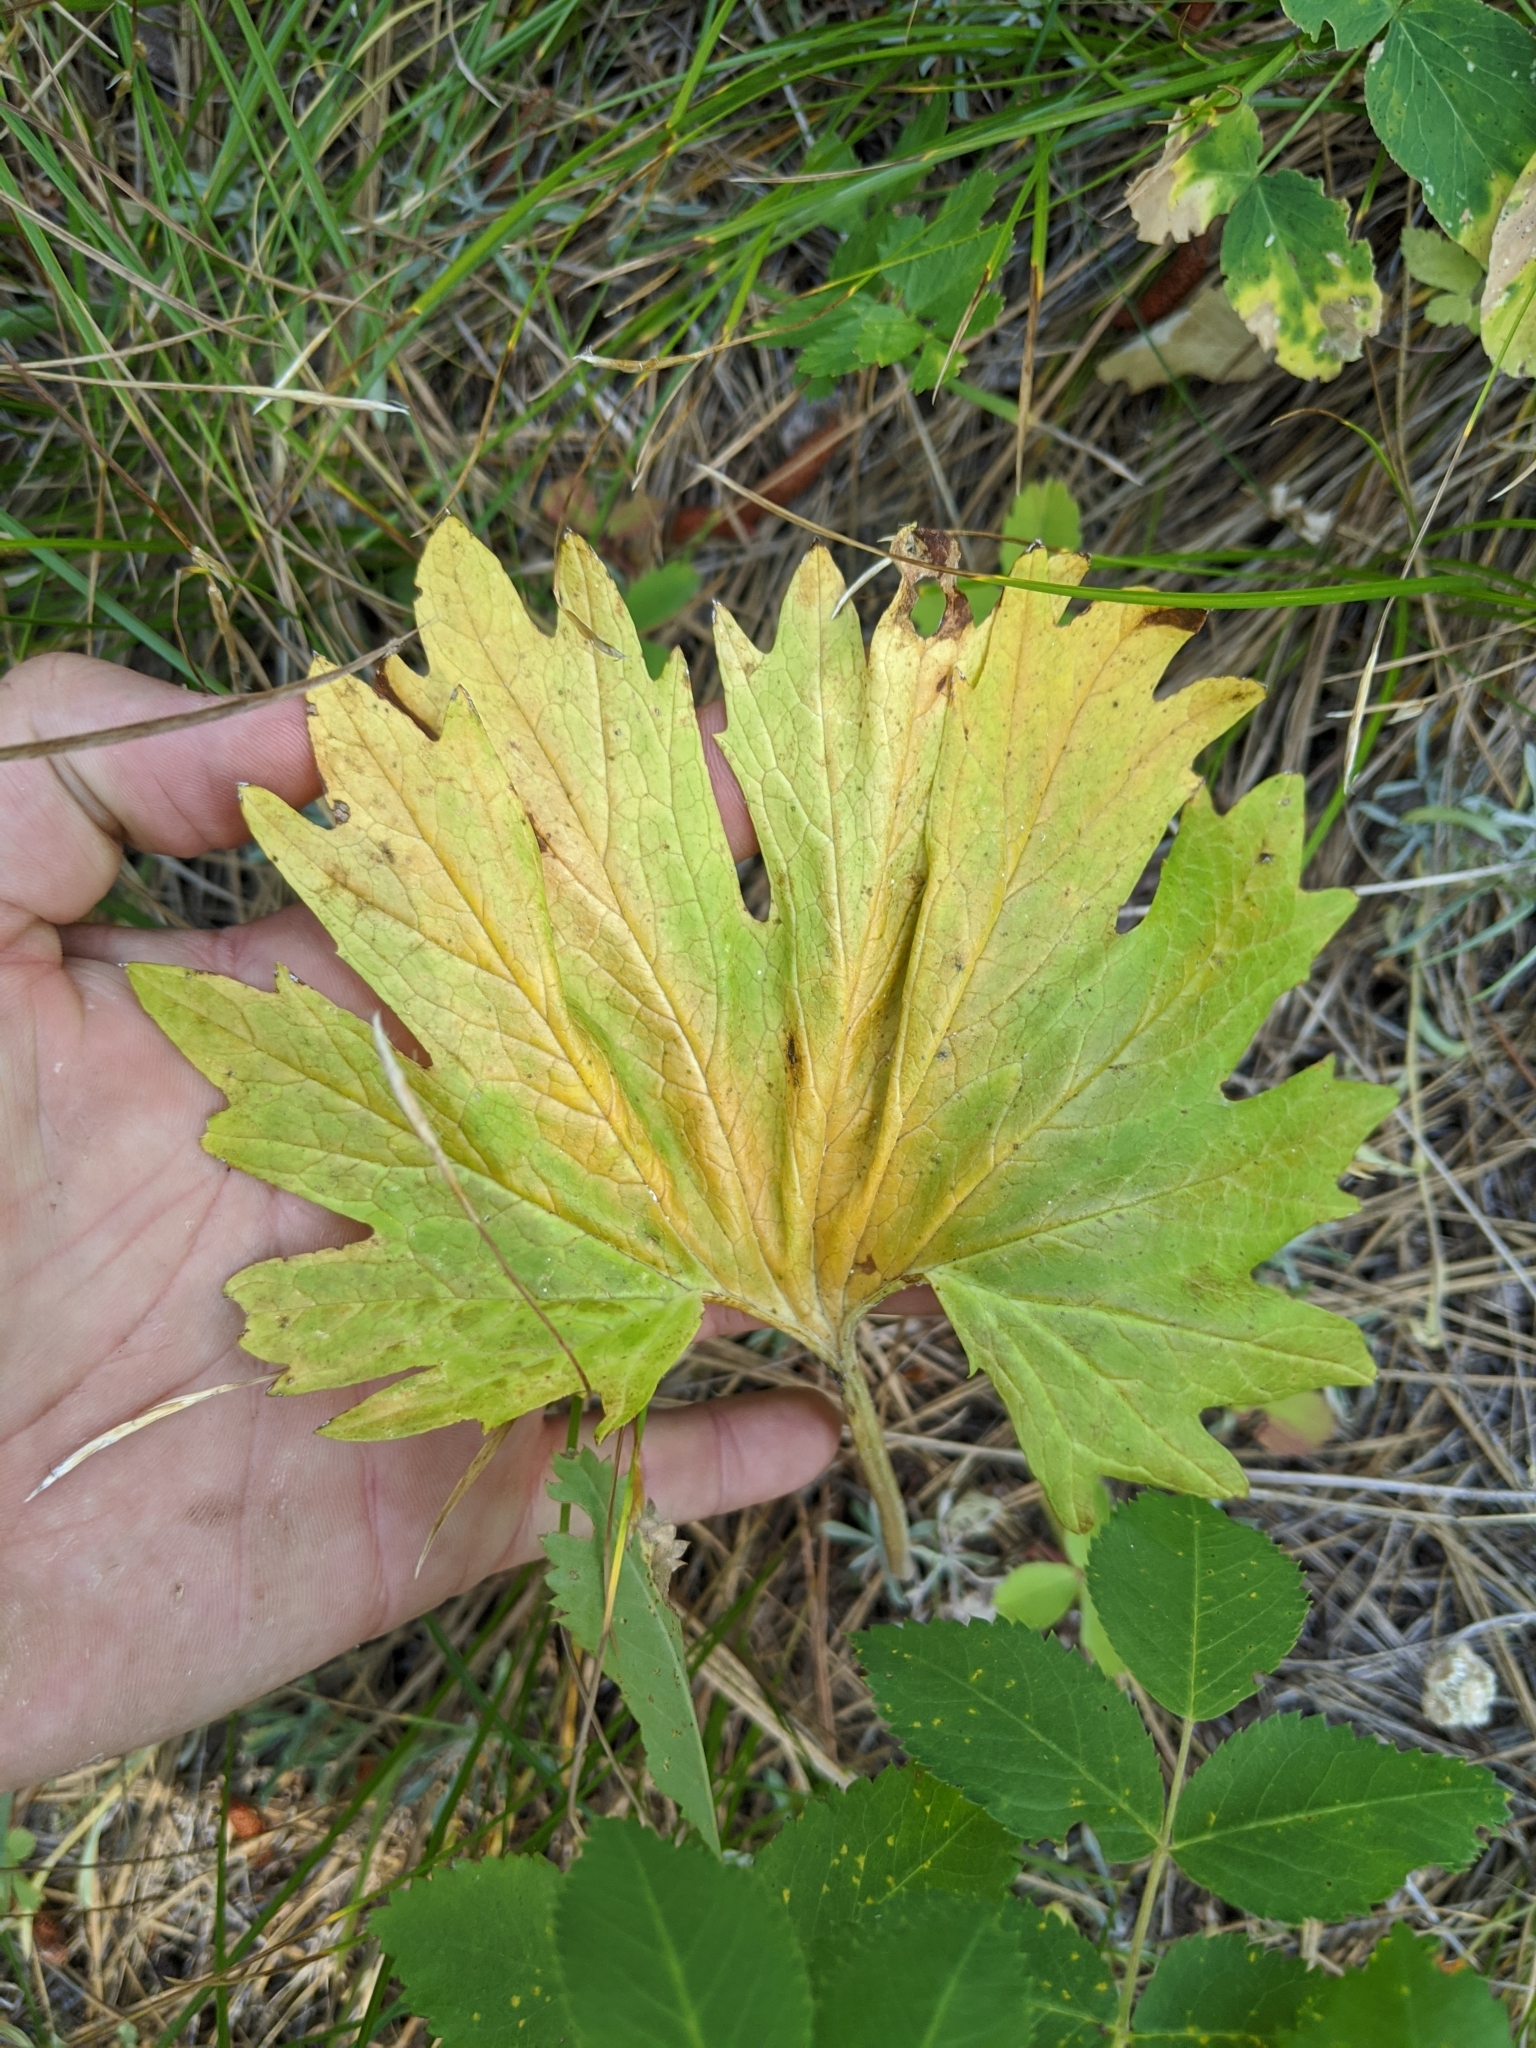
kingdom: Plantae
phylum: Tracheophyta
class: Magnoliopsida
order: Malvales
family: Malvaceae
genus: Sidalcea
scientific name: Sidalcea oregana
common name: Oregon checker-mallow
